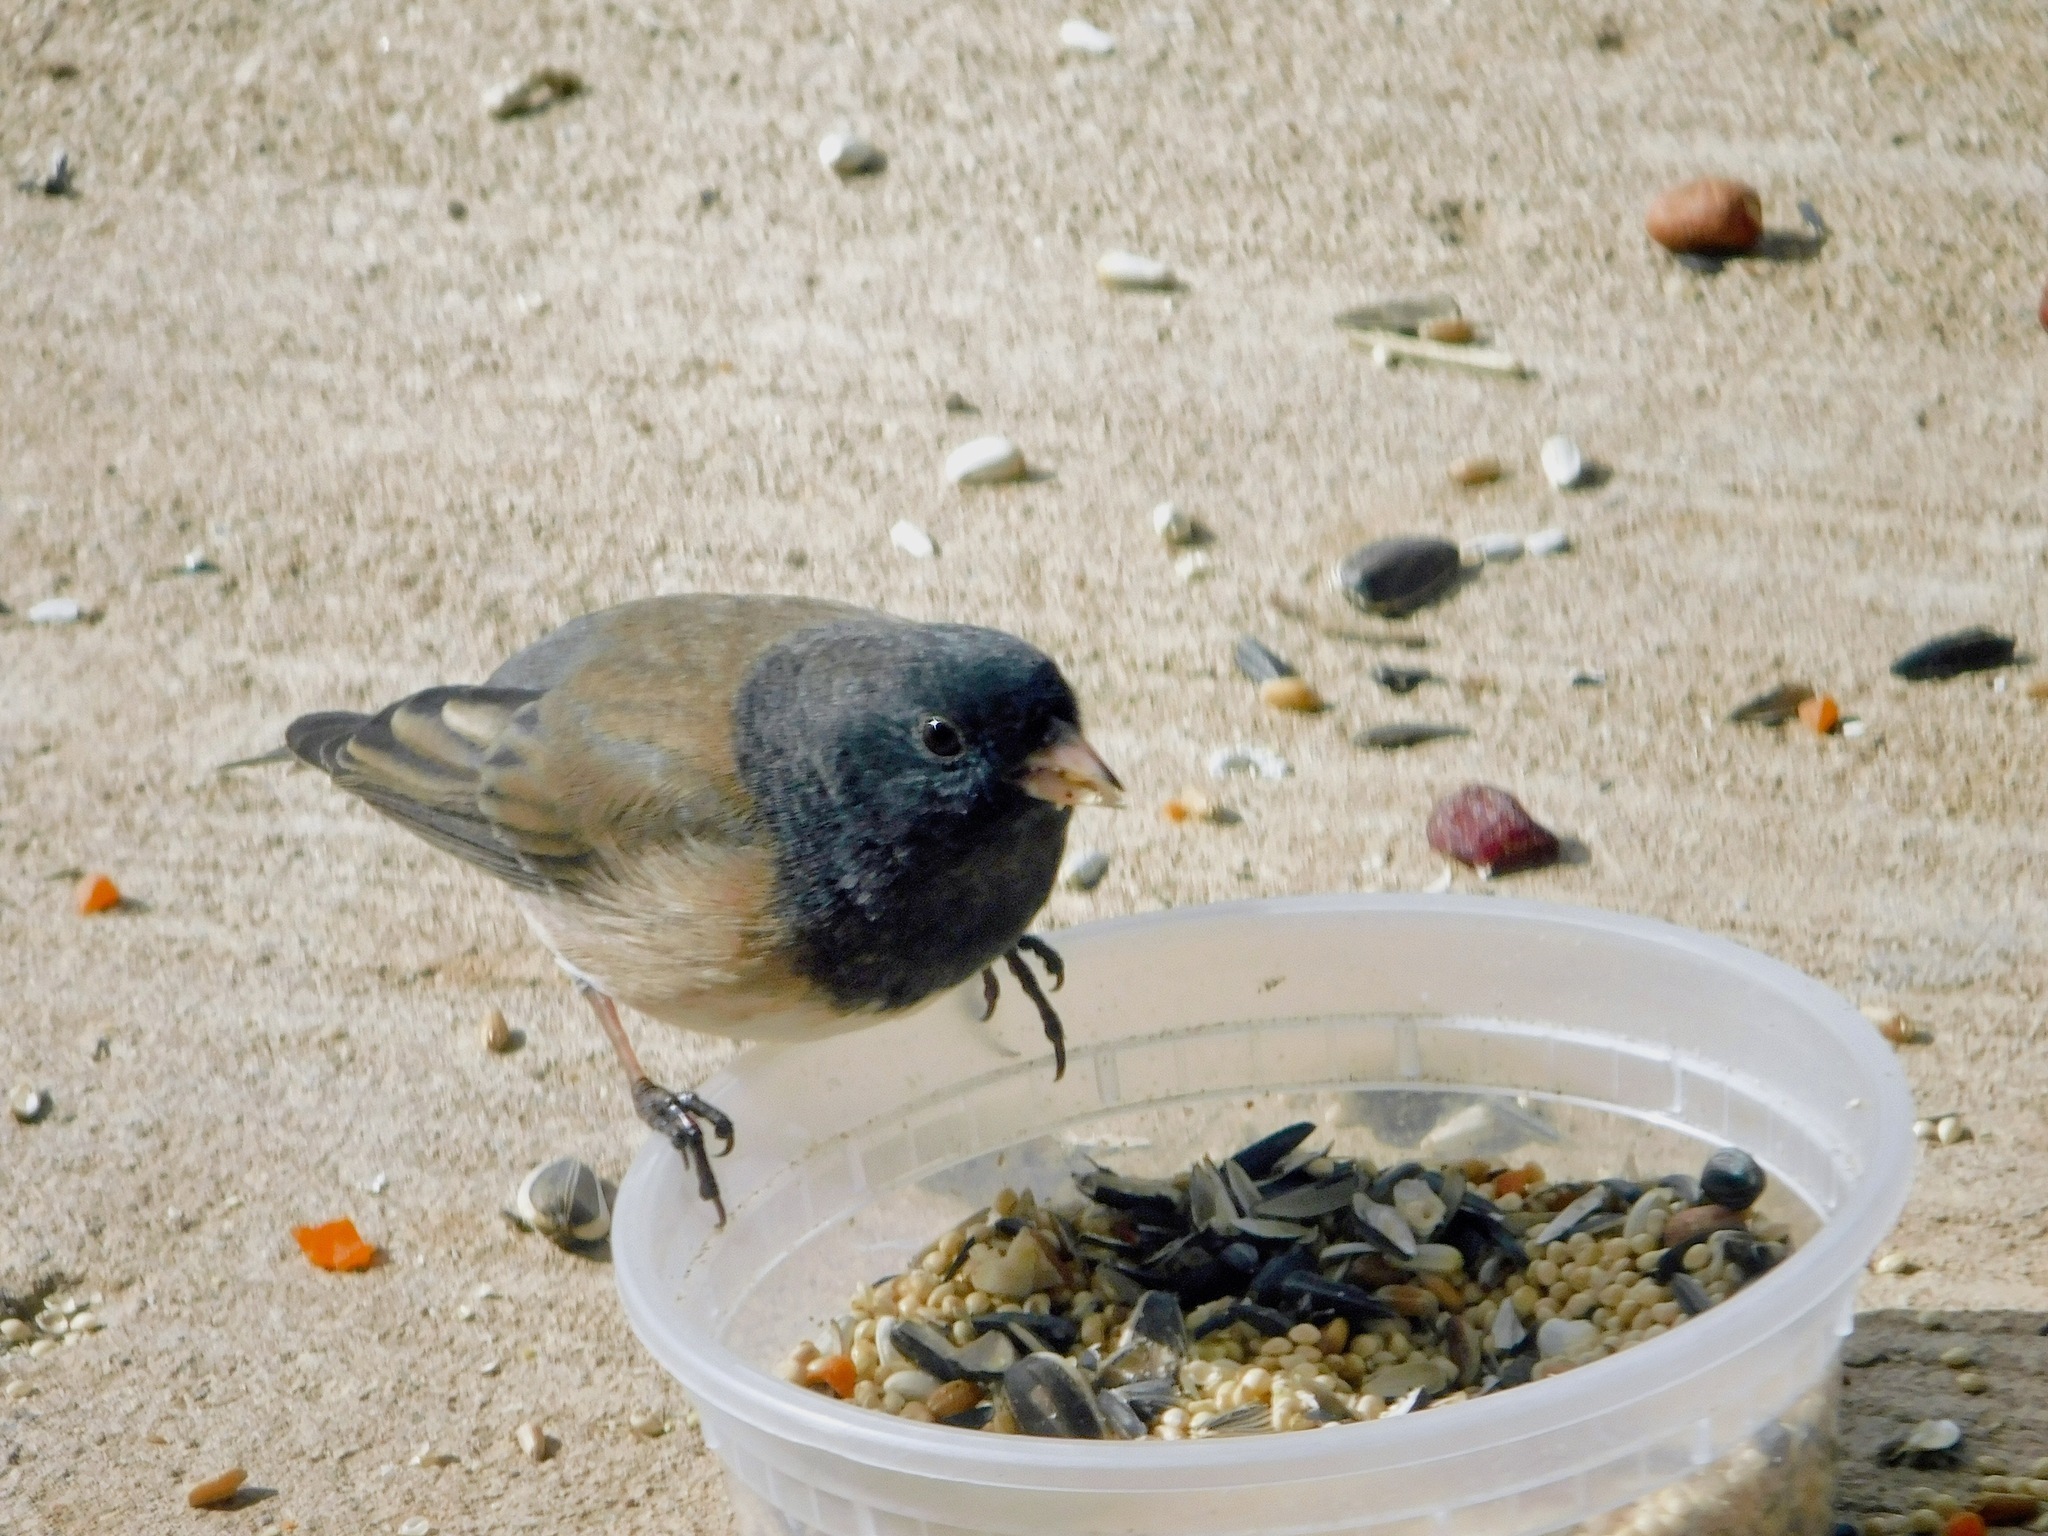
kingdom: Animalia
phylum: Chordata
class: Aves
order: Passeriformes
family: Passerellidae
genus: Junco
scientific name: Junco hyemalis
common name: Dark-eyed junco
